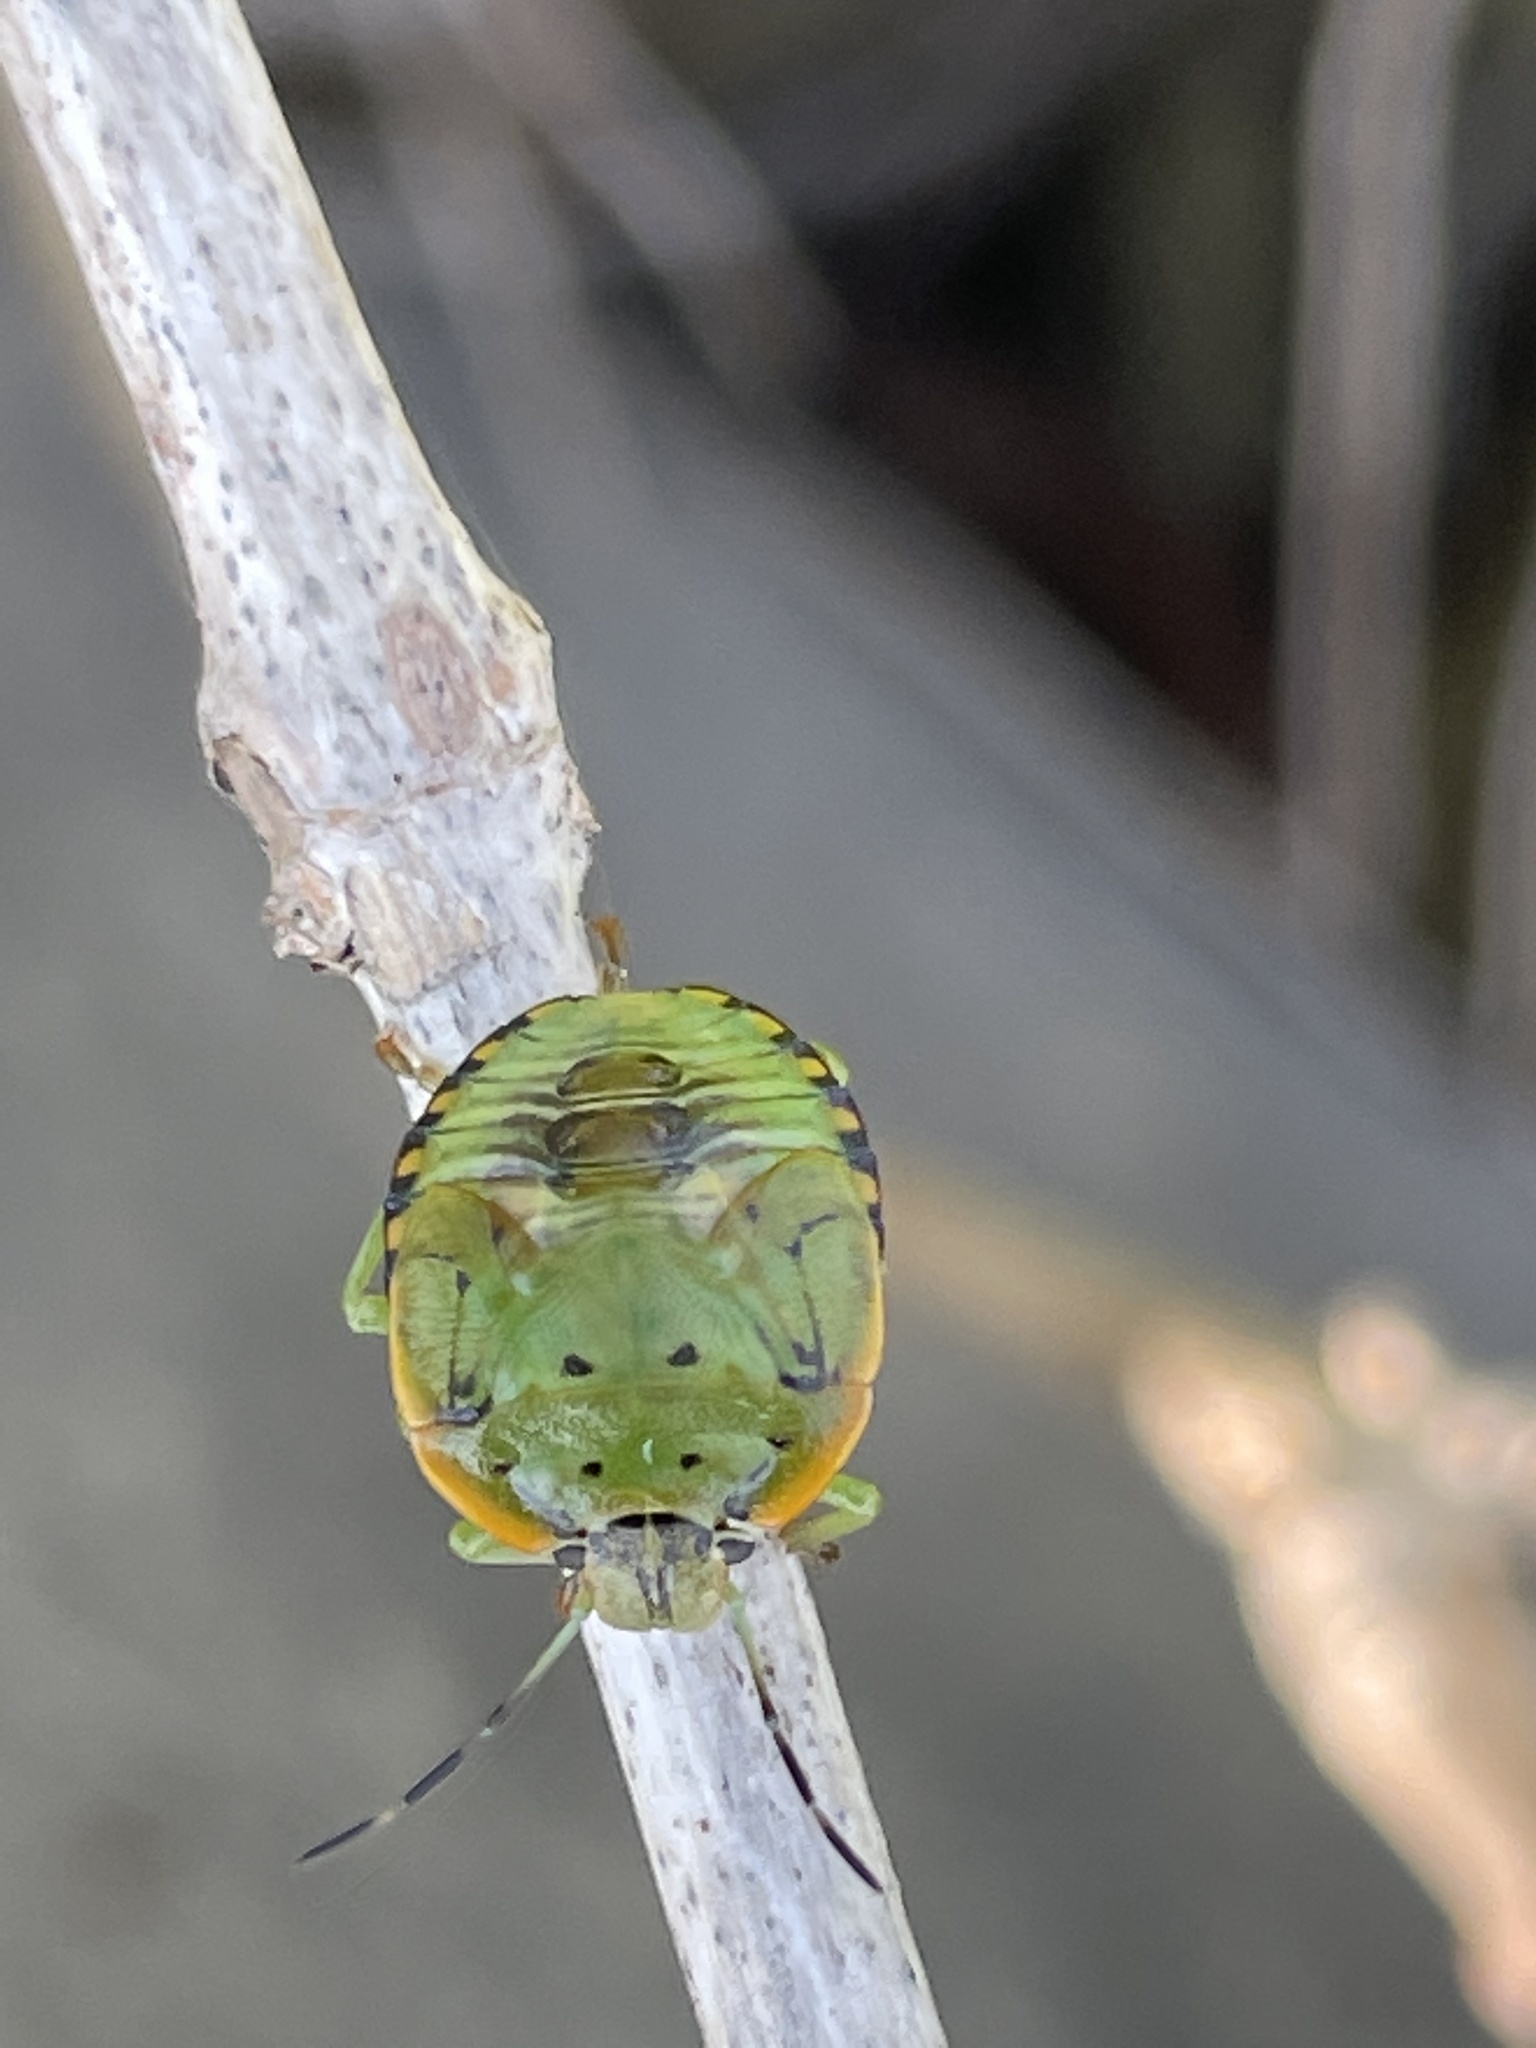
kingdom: Animalia
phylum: Arthropoda
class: Insecta
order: Hemiptera
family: Pentatomidae
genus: Chinavia
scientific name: Chinavia hilaris
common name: Green stink bug
